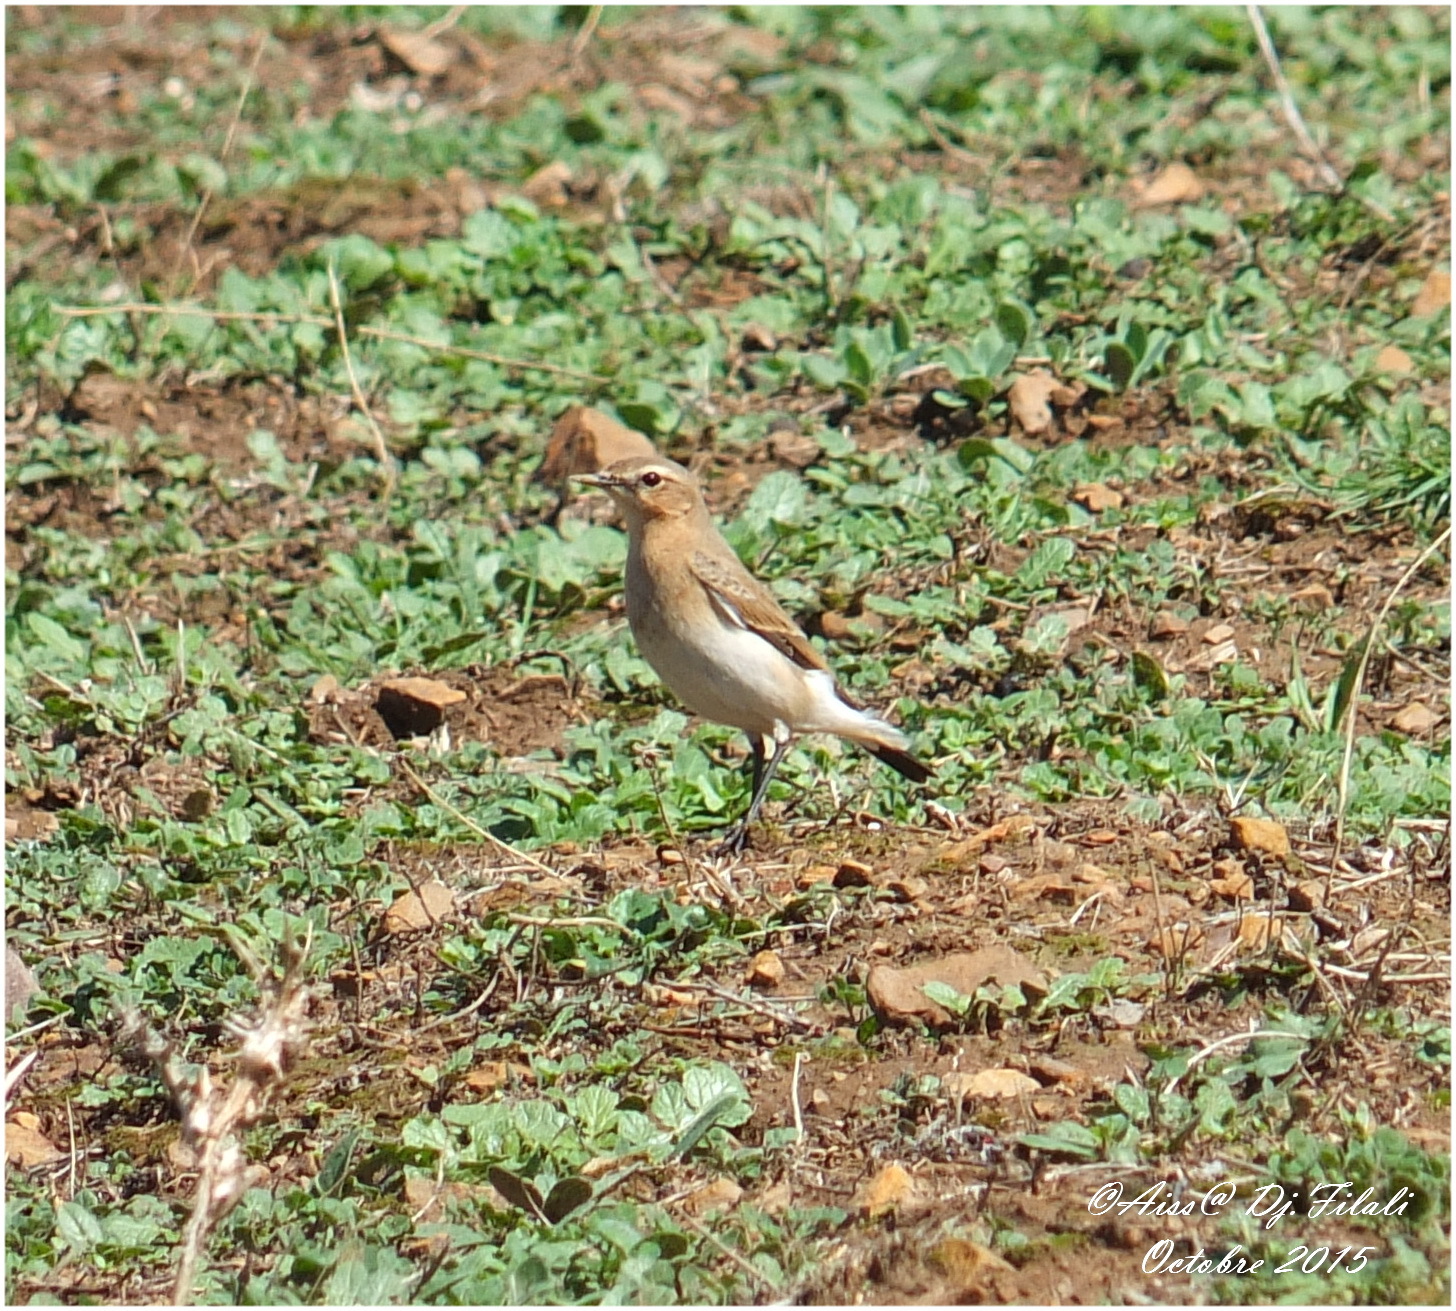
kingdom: Animalia
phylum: Chordata
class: Aves
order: Passeriformes
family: Muscicapidae
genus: Oenanthe
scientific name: Oenanthe oenanthe
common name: Northern wheatear
